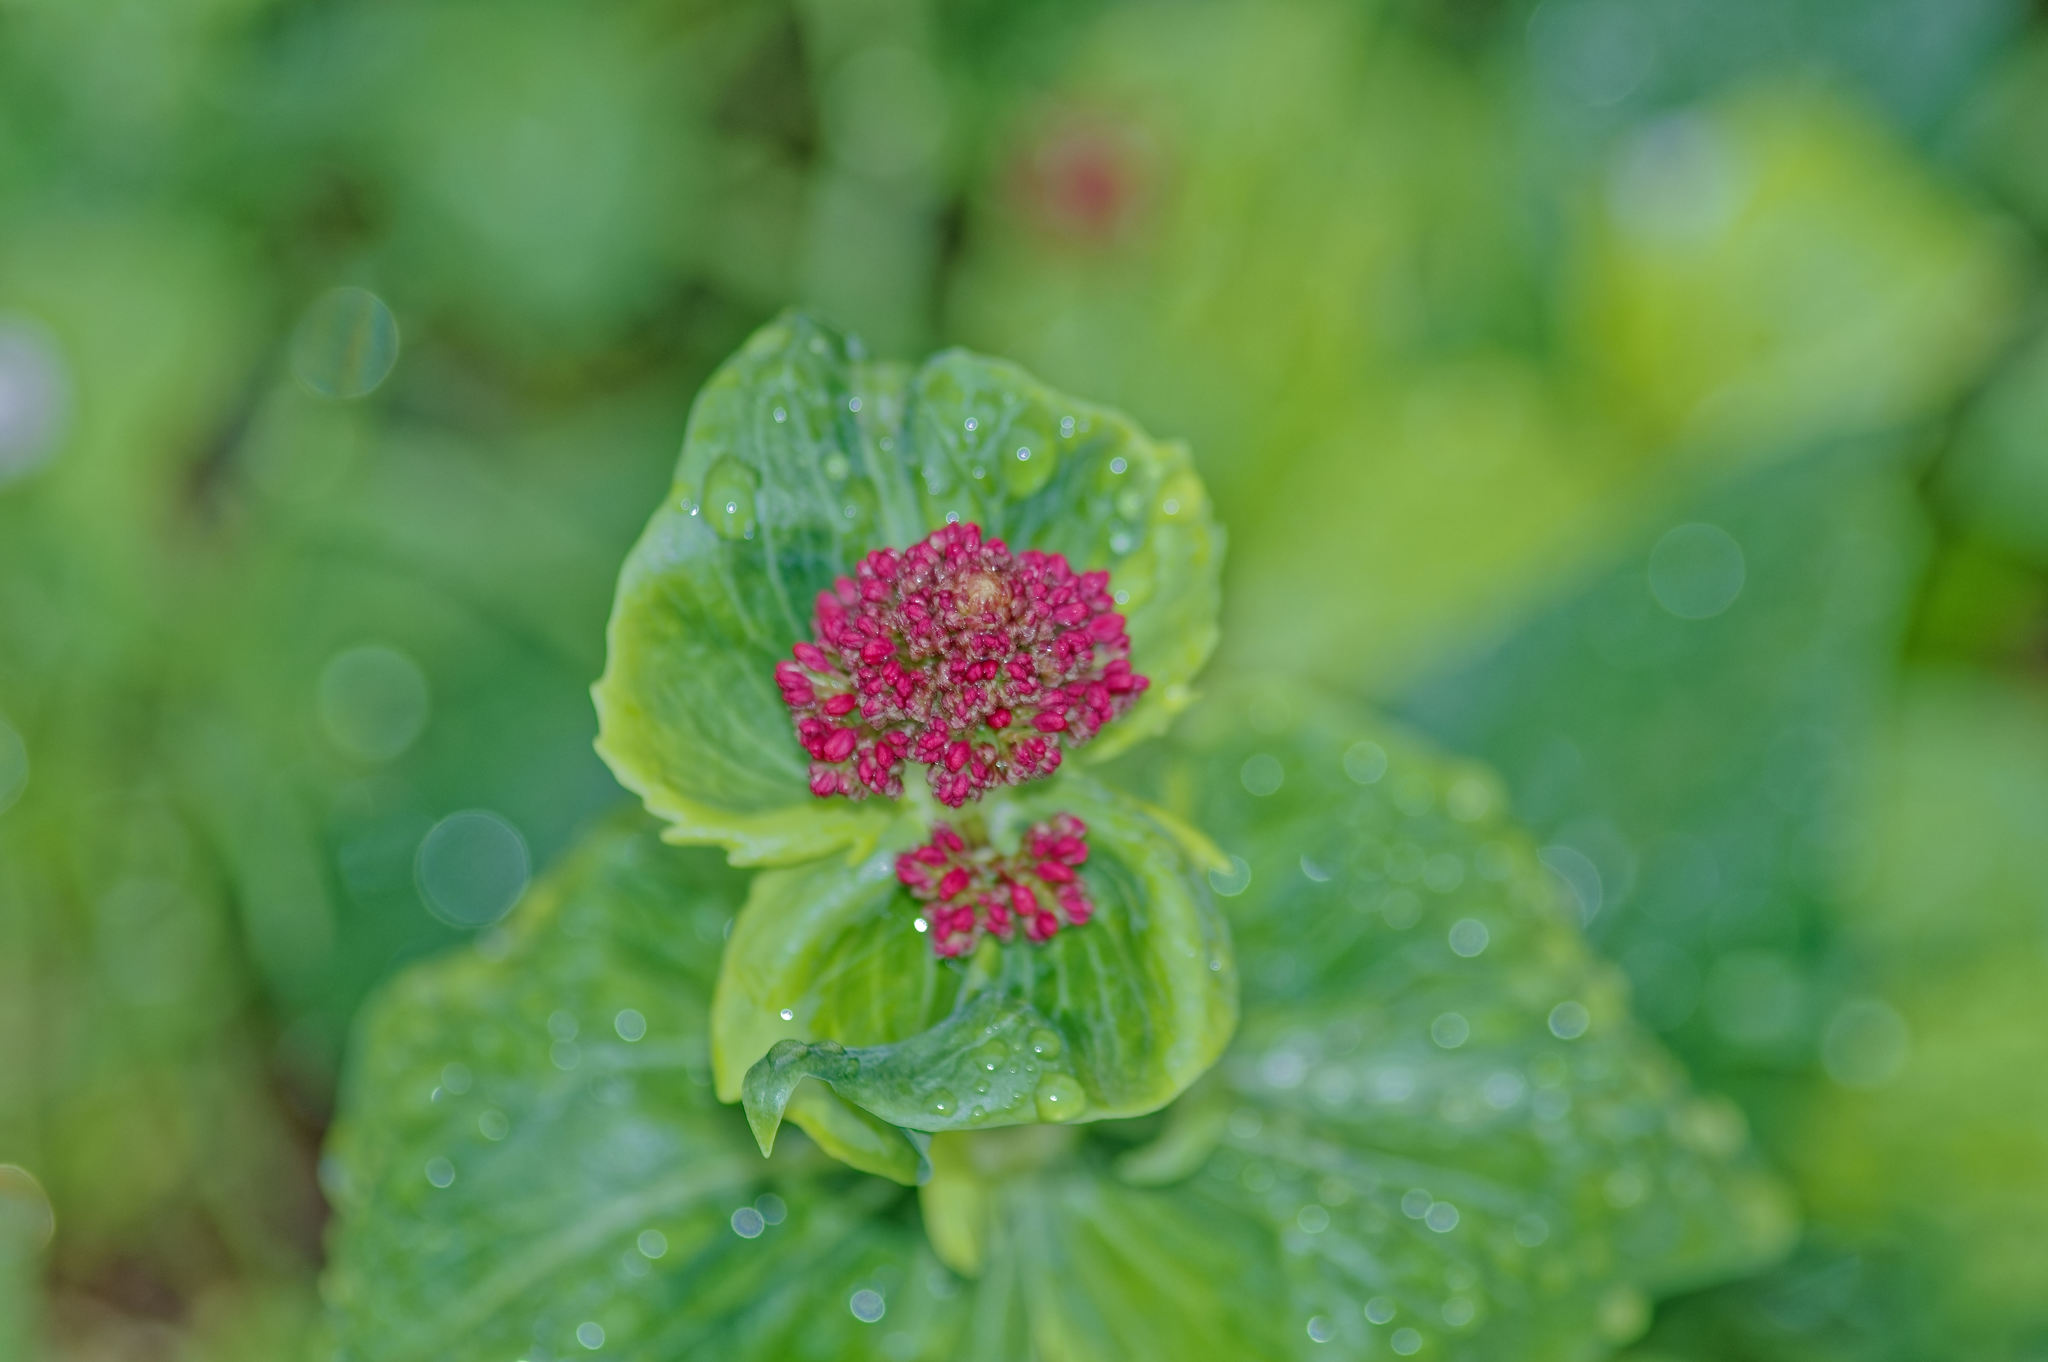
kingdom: Plantae
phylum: Tracheophyta
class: Magnoliopsida
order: Dipsacales
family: Caprifoliaceae
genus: Centranthus
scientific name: Centranthus ruber
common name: Red valerian
